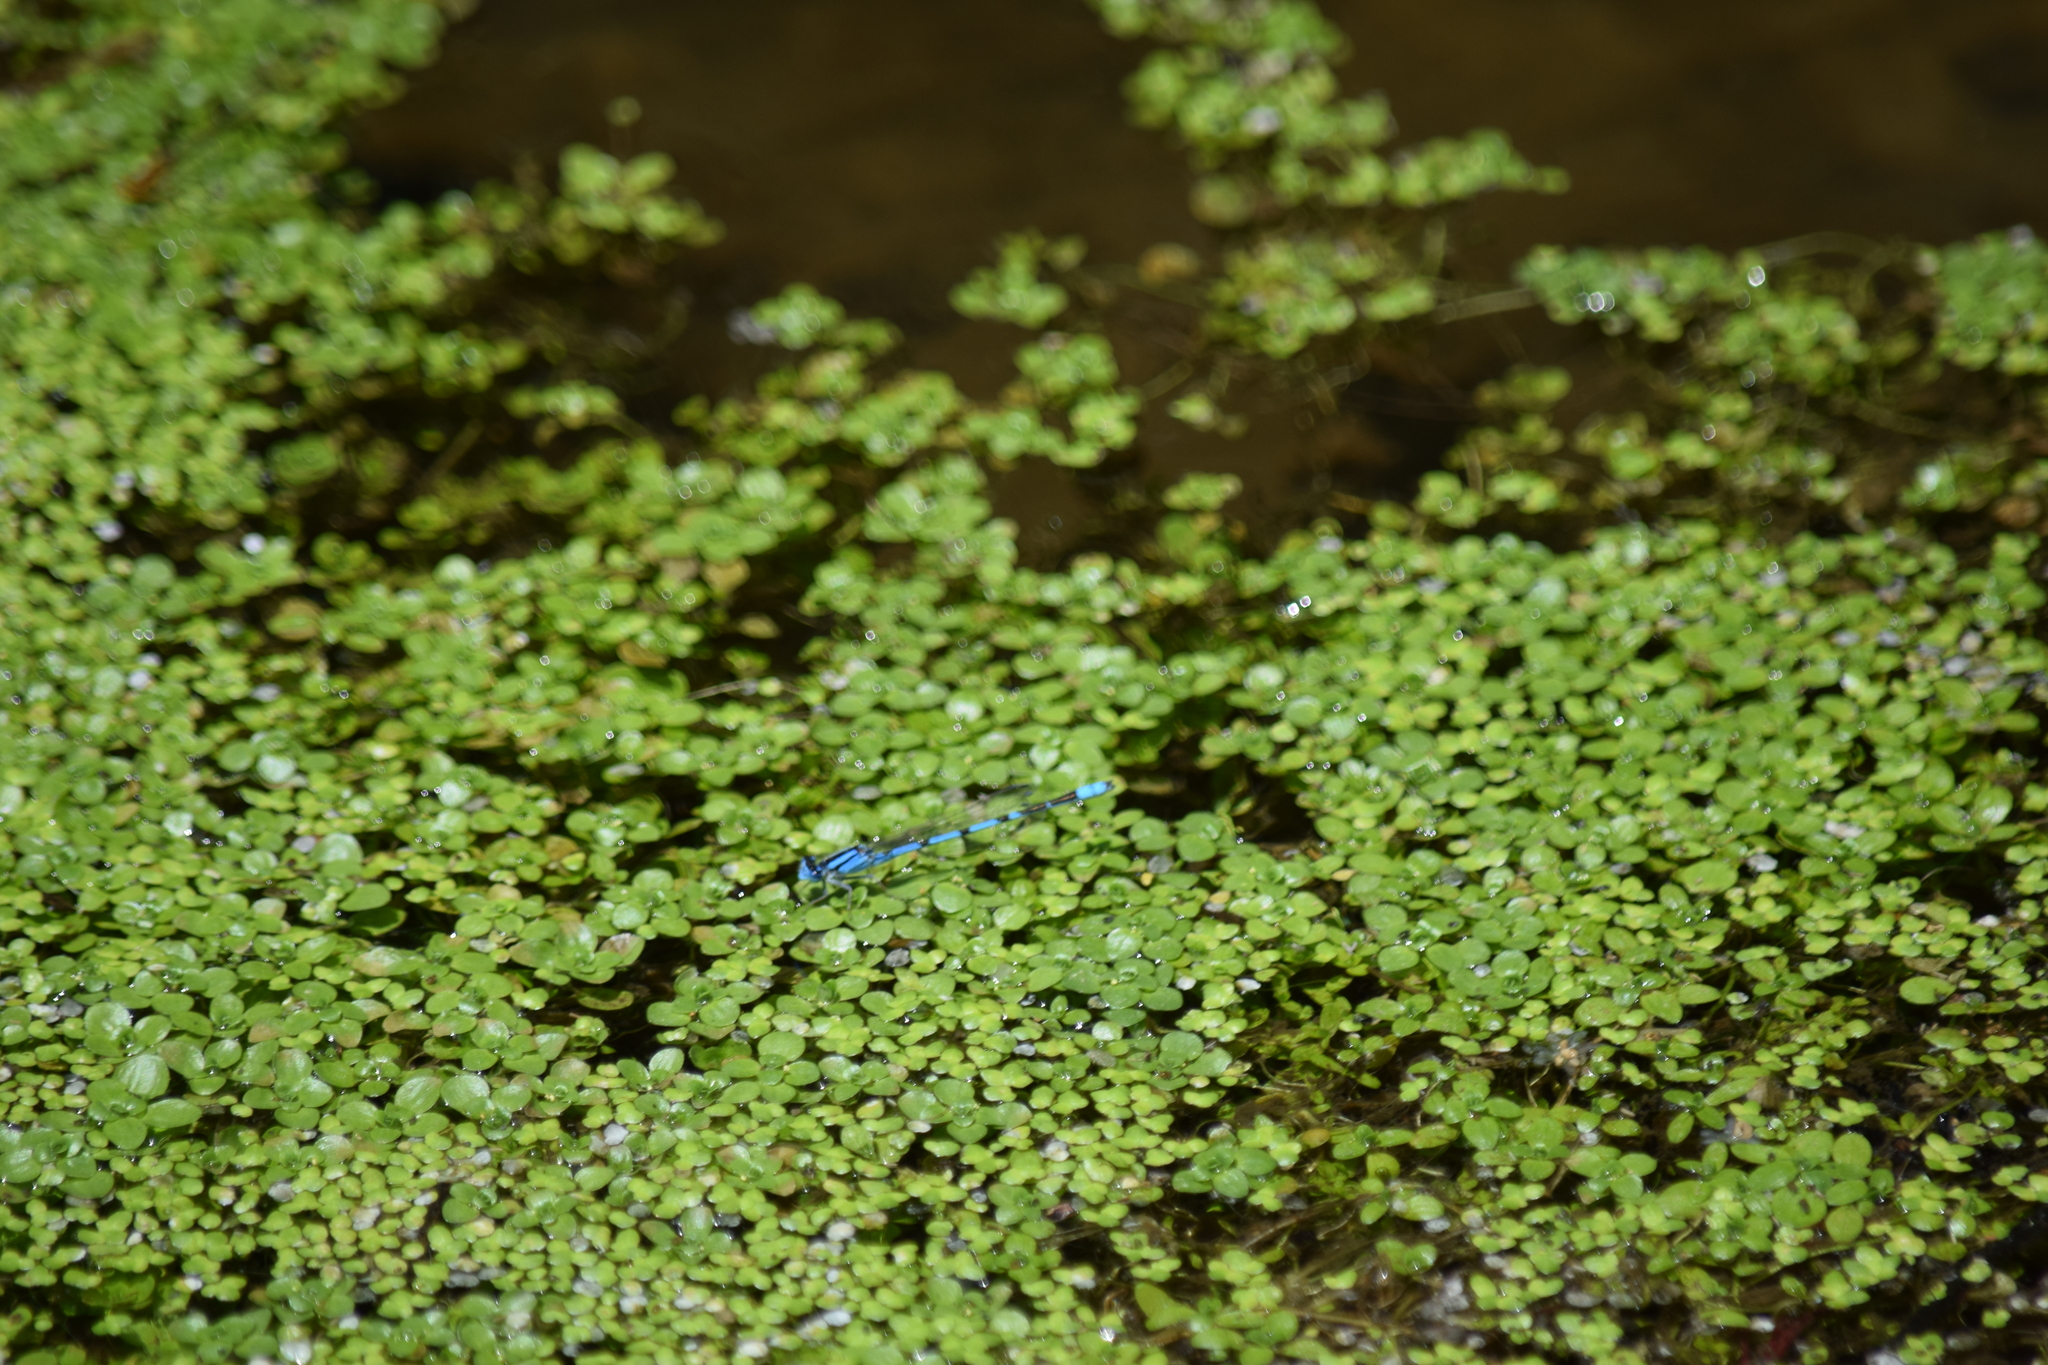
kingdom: Animalia
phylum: Arthropoda
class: Insecta
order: Odonata
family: Coenagrionidae
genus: Enallagma
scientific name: Enallagma civile
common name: Damselfly
